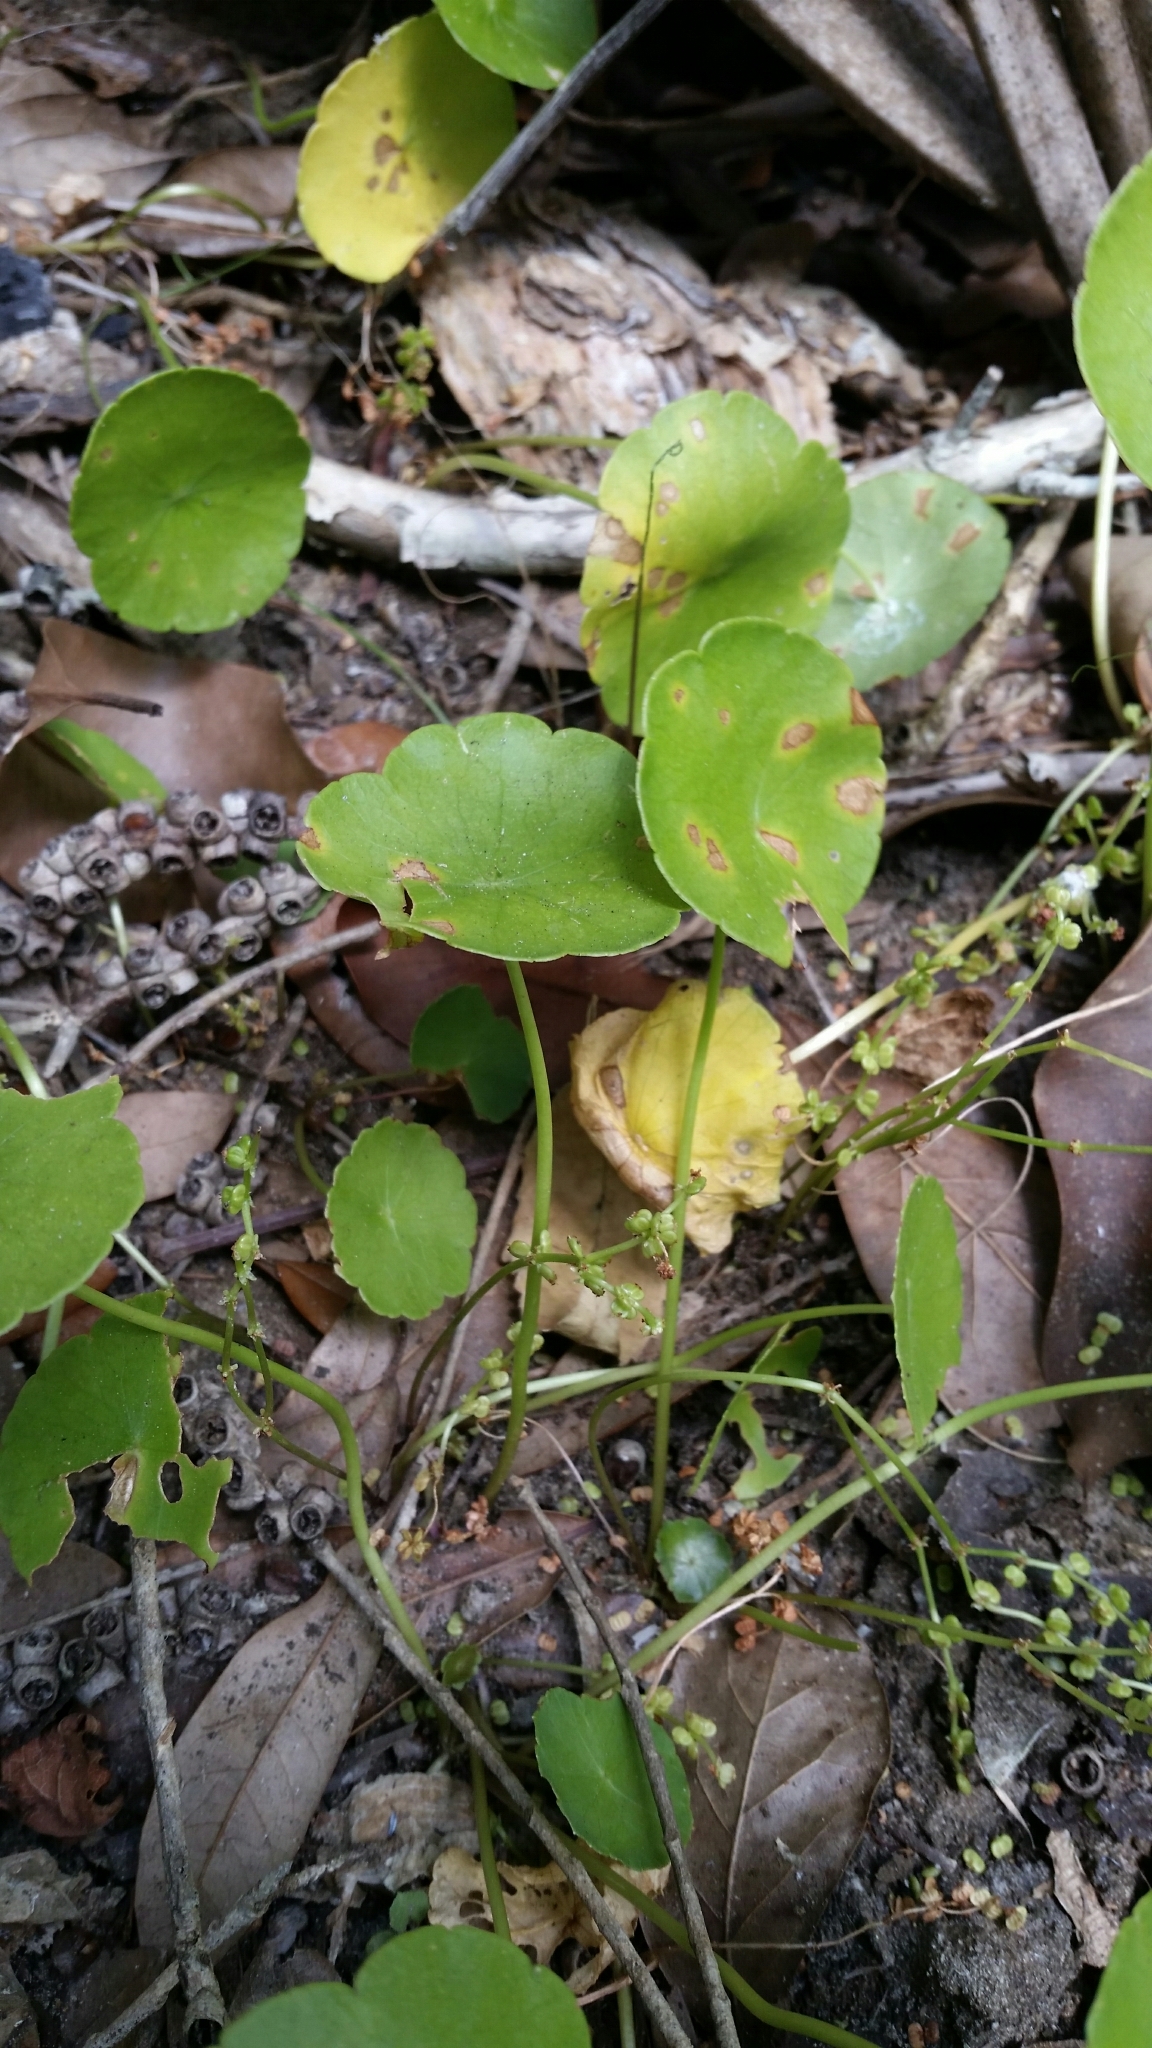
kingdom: Plantae
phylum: Tracheophyta
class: Magnoliopsida
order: Apiales
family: Araliaceae
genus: Hydrocotyle
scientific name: Hydrocotyle verticillata
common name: Whorled marshpennywort
